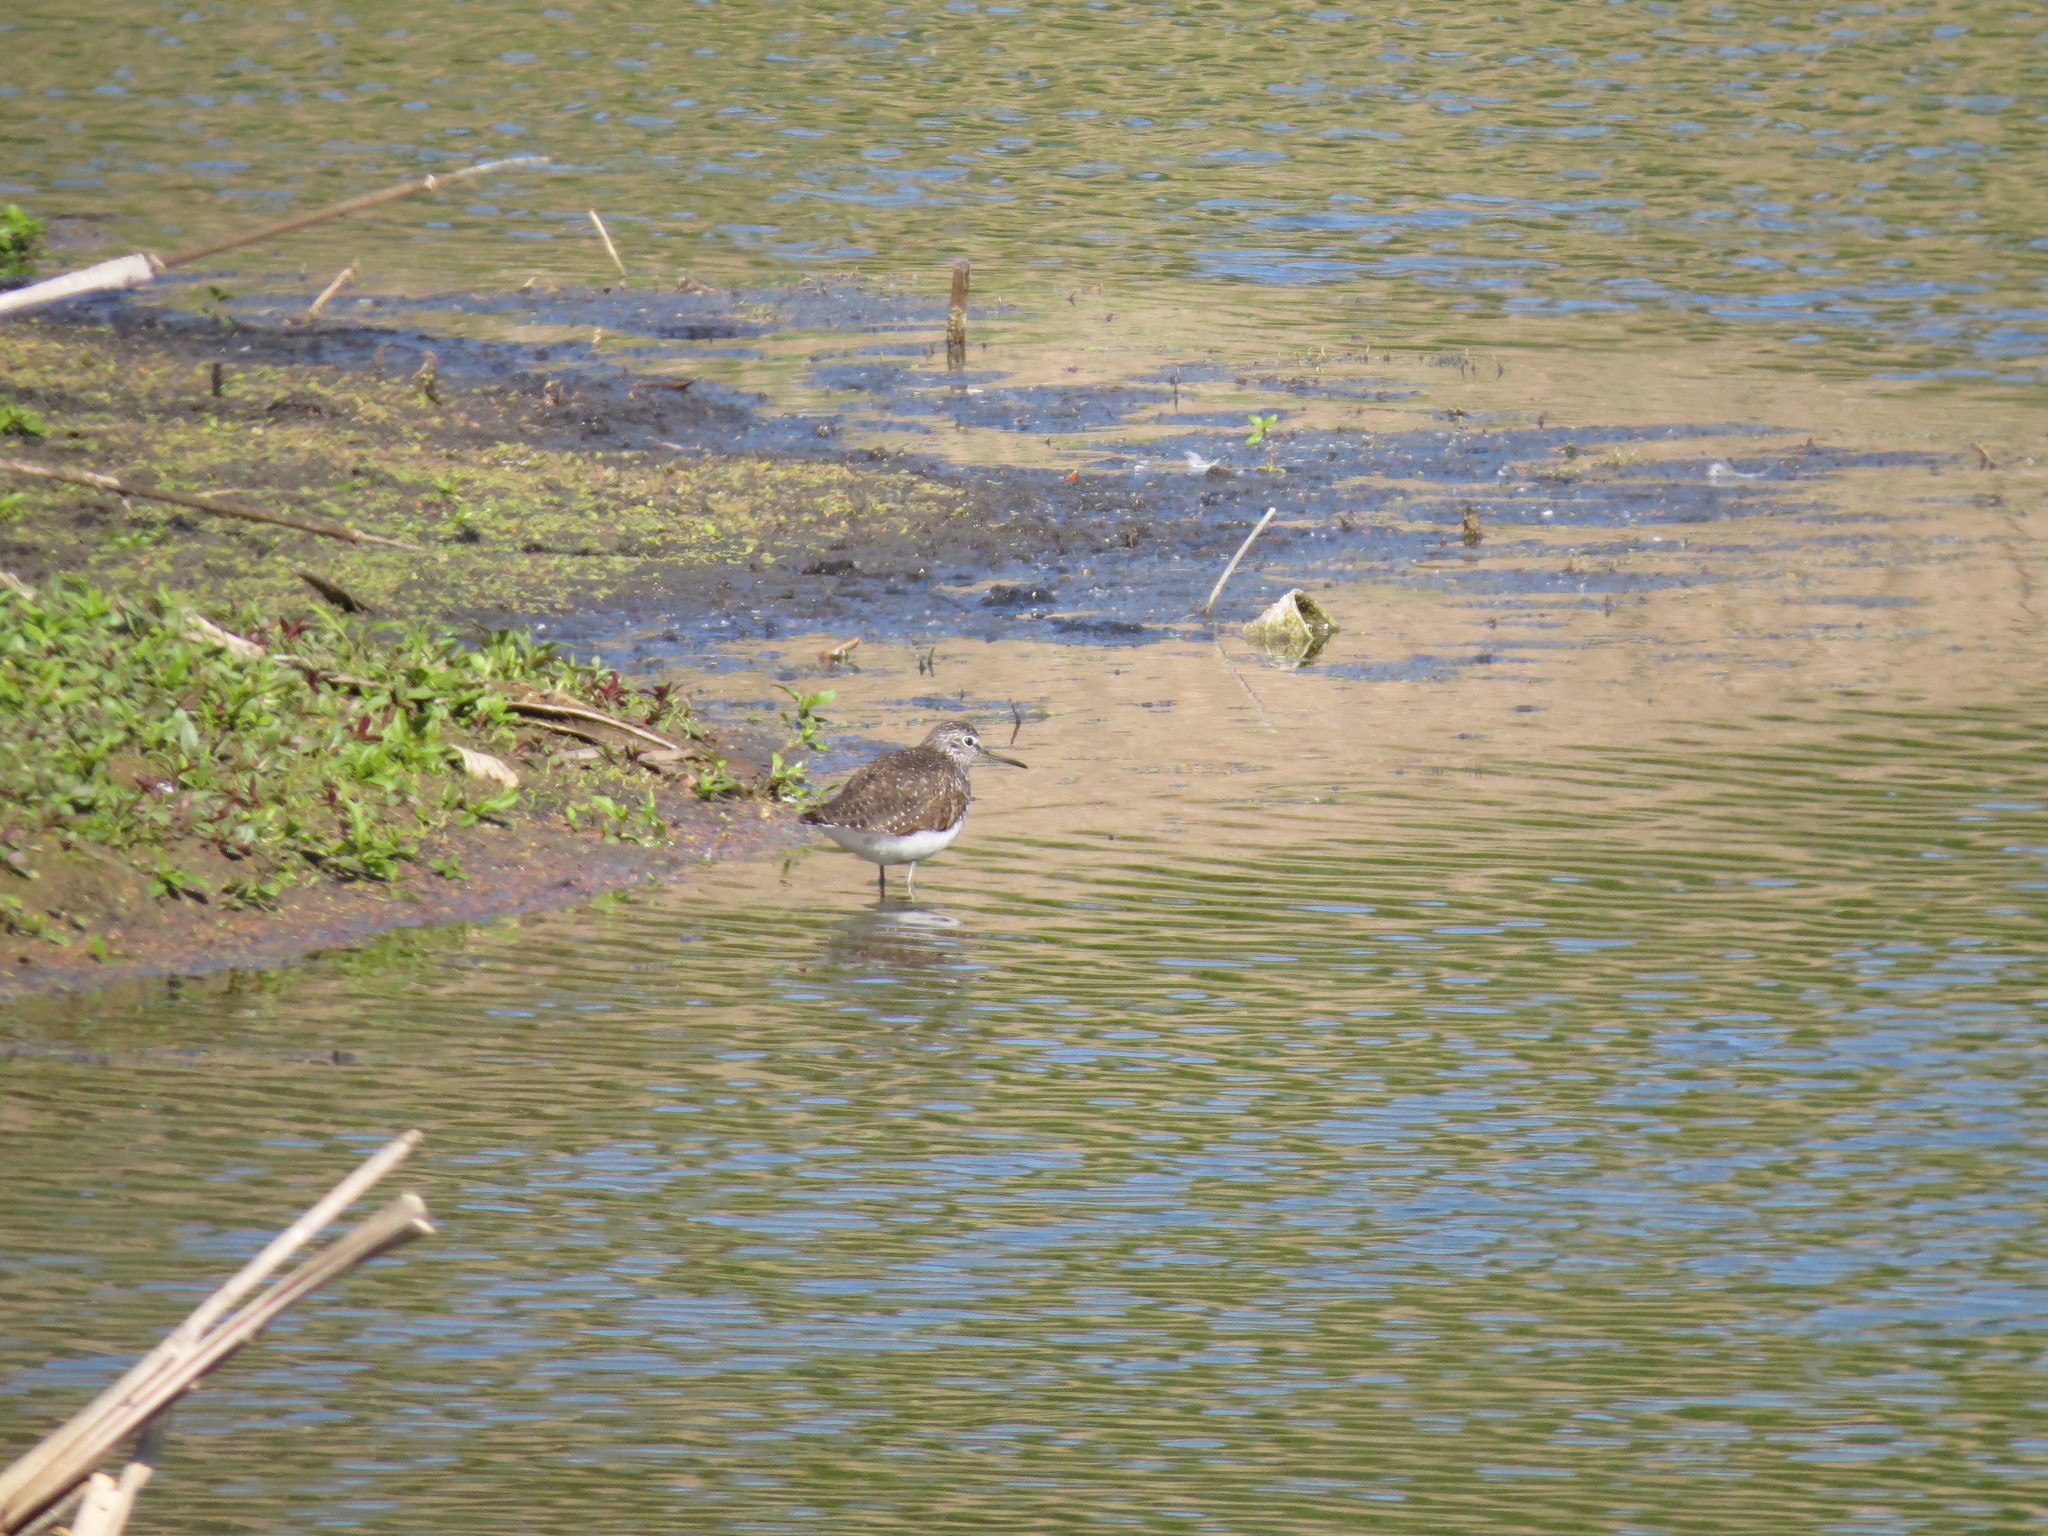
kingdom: Animalia
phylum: Chordata
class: Aves
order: Charadriiformes
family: Scolopacidae
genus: Tringa
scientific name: Tringa ochropus
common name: Green sandpiper
